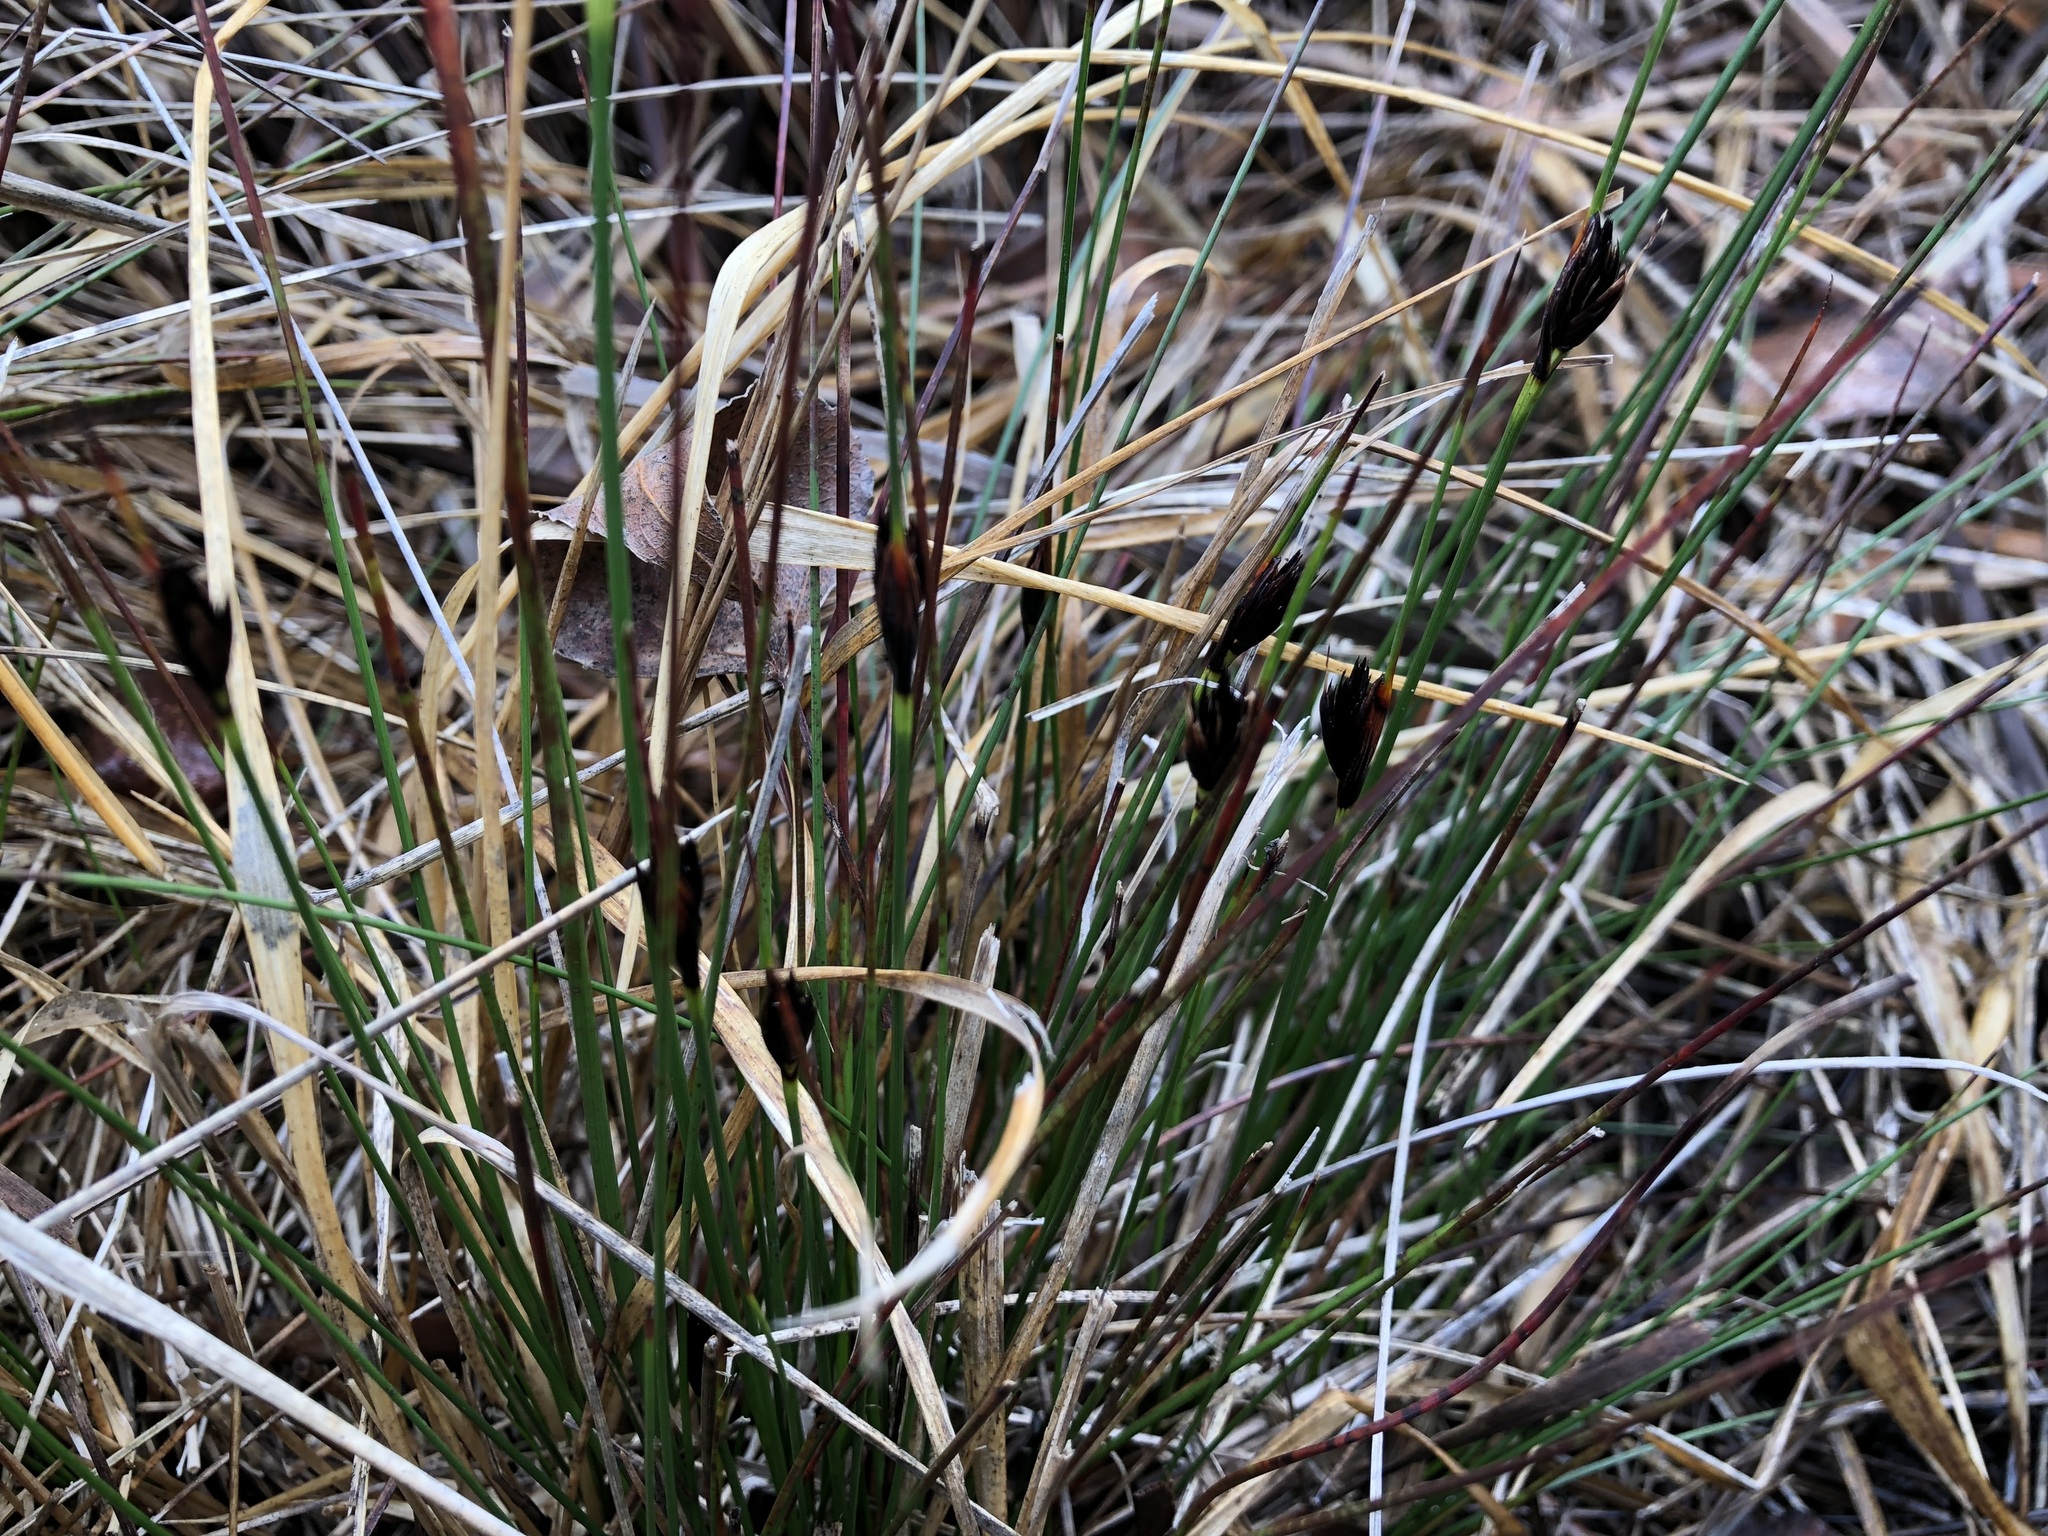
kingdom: Plantae
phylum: Tracheophyta
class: Liliopsida
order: Poales
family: Cyperaceae
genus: Schoenus
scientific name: Schoenus nigricans
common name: Black bog-rush
